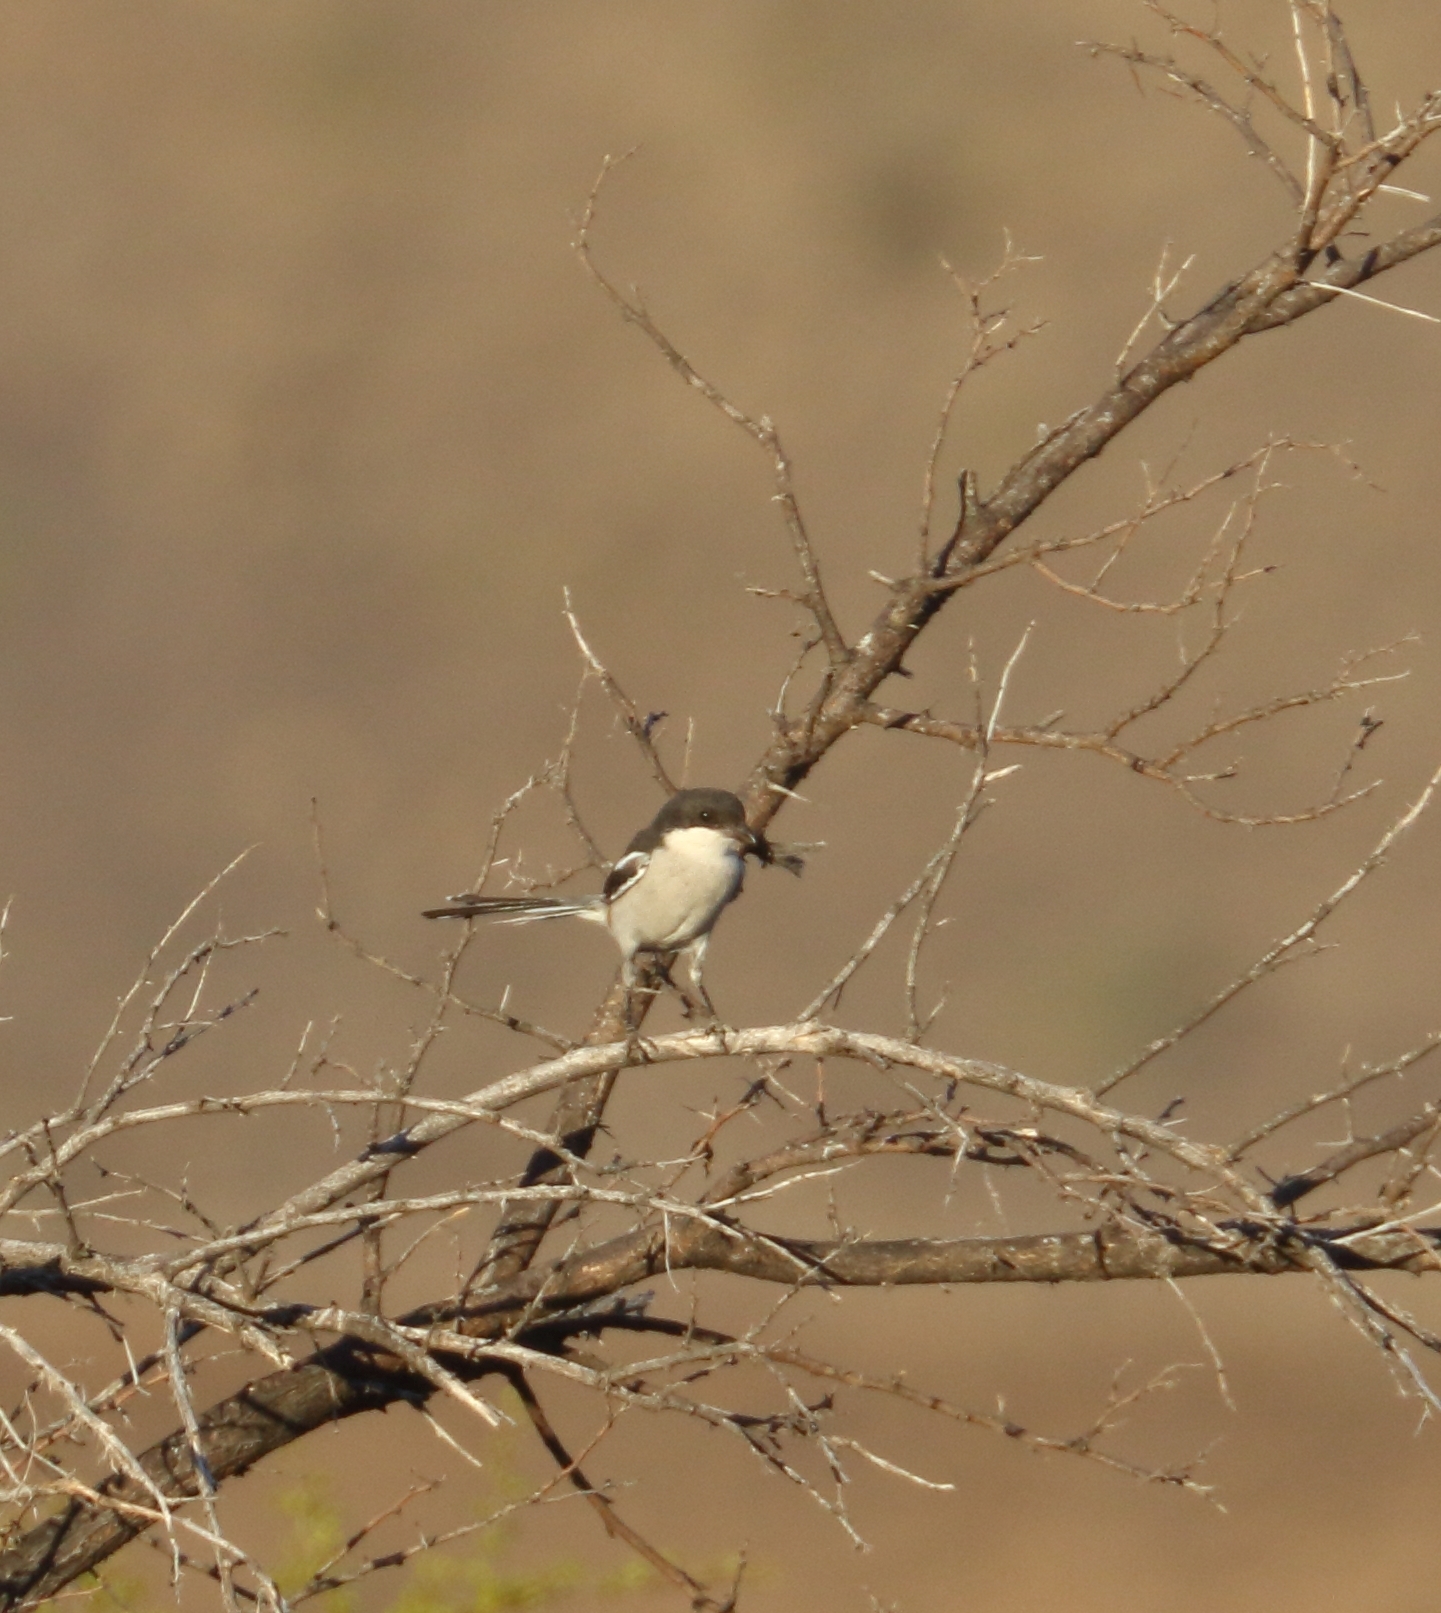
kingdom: Animalia
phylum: Chordata
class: Aves
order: Passeriformes
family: Laniidae
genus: Lanius
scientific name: Lanius collaris
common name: Southern fiscal
